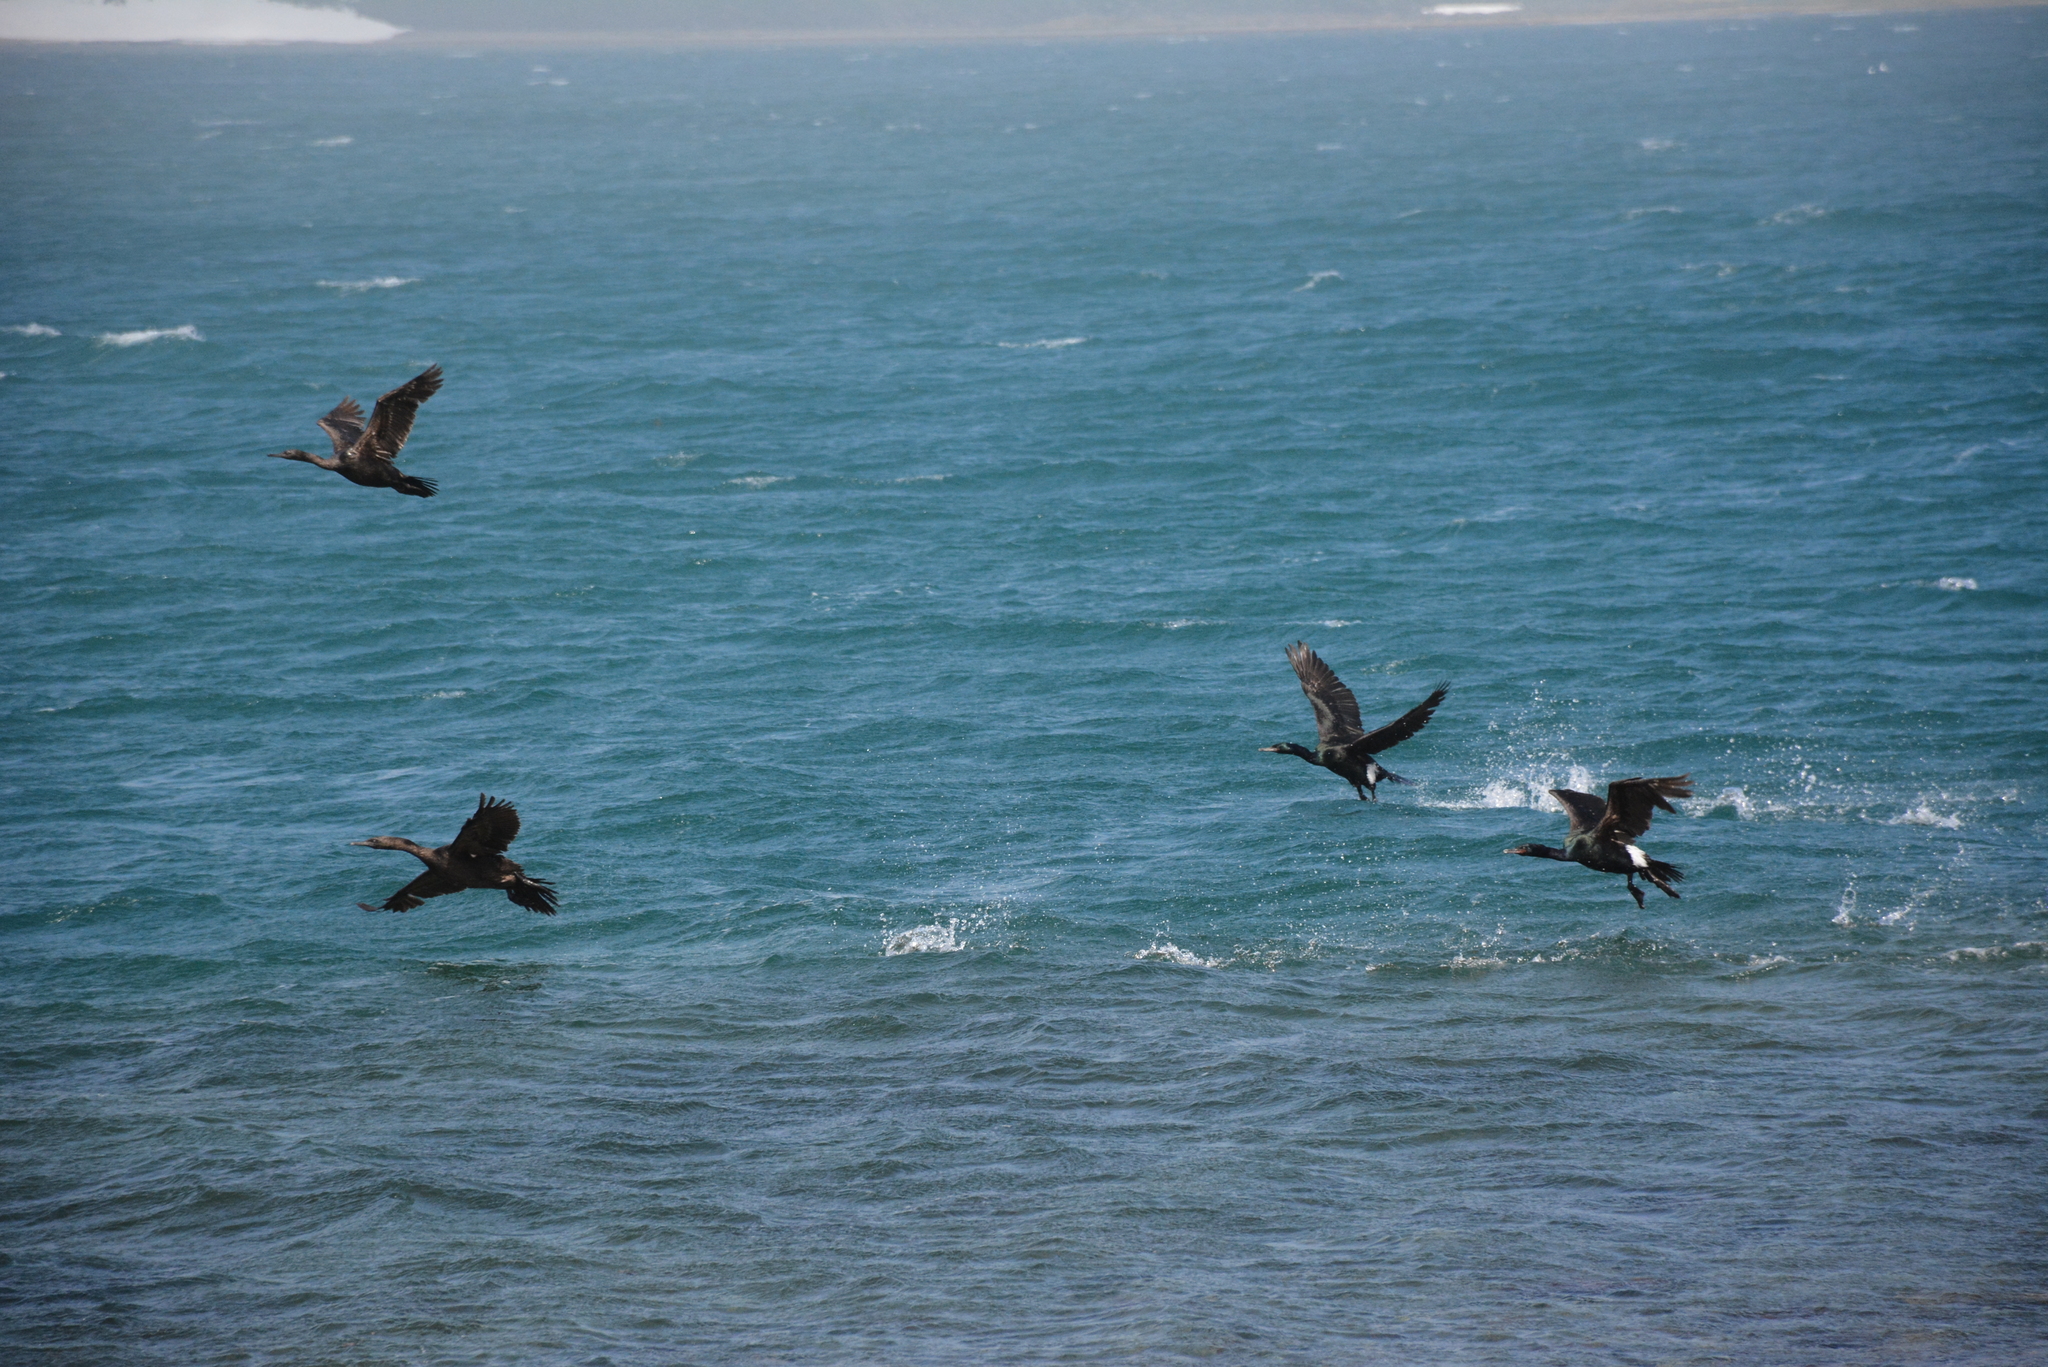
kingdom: Animalia
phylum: Chordata
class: Aves
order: Suliformes
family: Phalacrocoracidae
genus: Phalacrocorax
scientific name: Phalacrocorax pelagicus
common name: Pelagic cormorant
